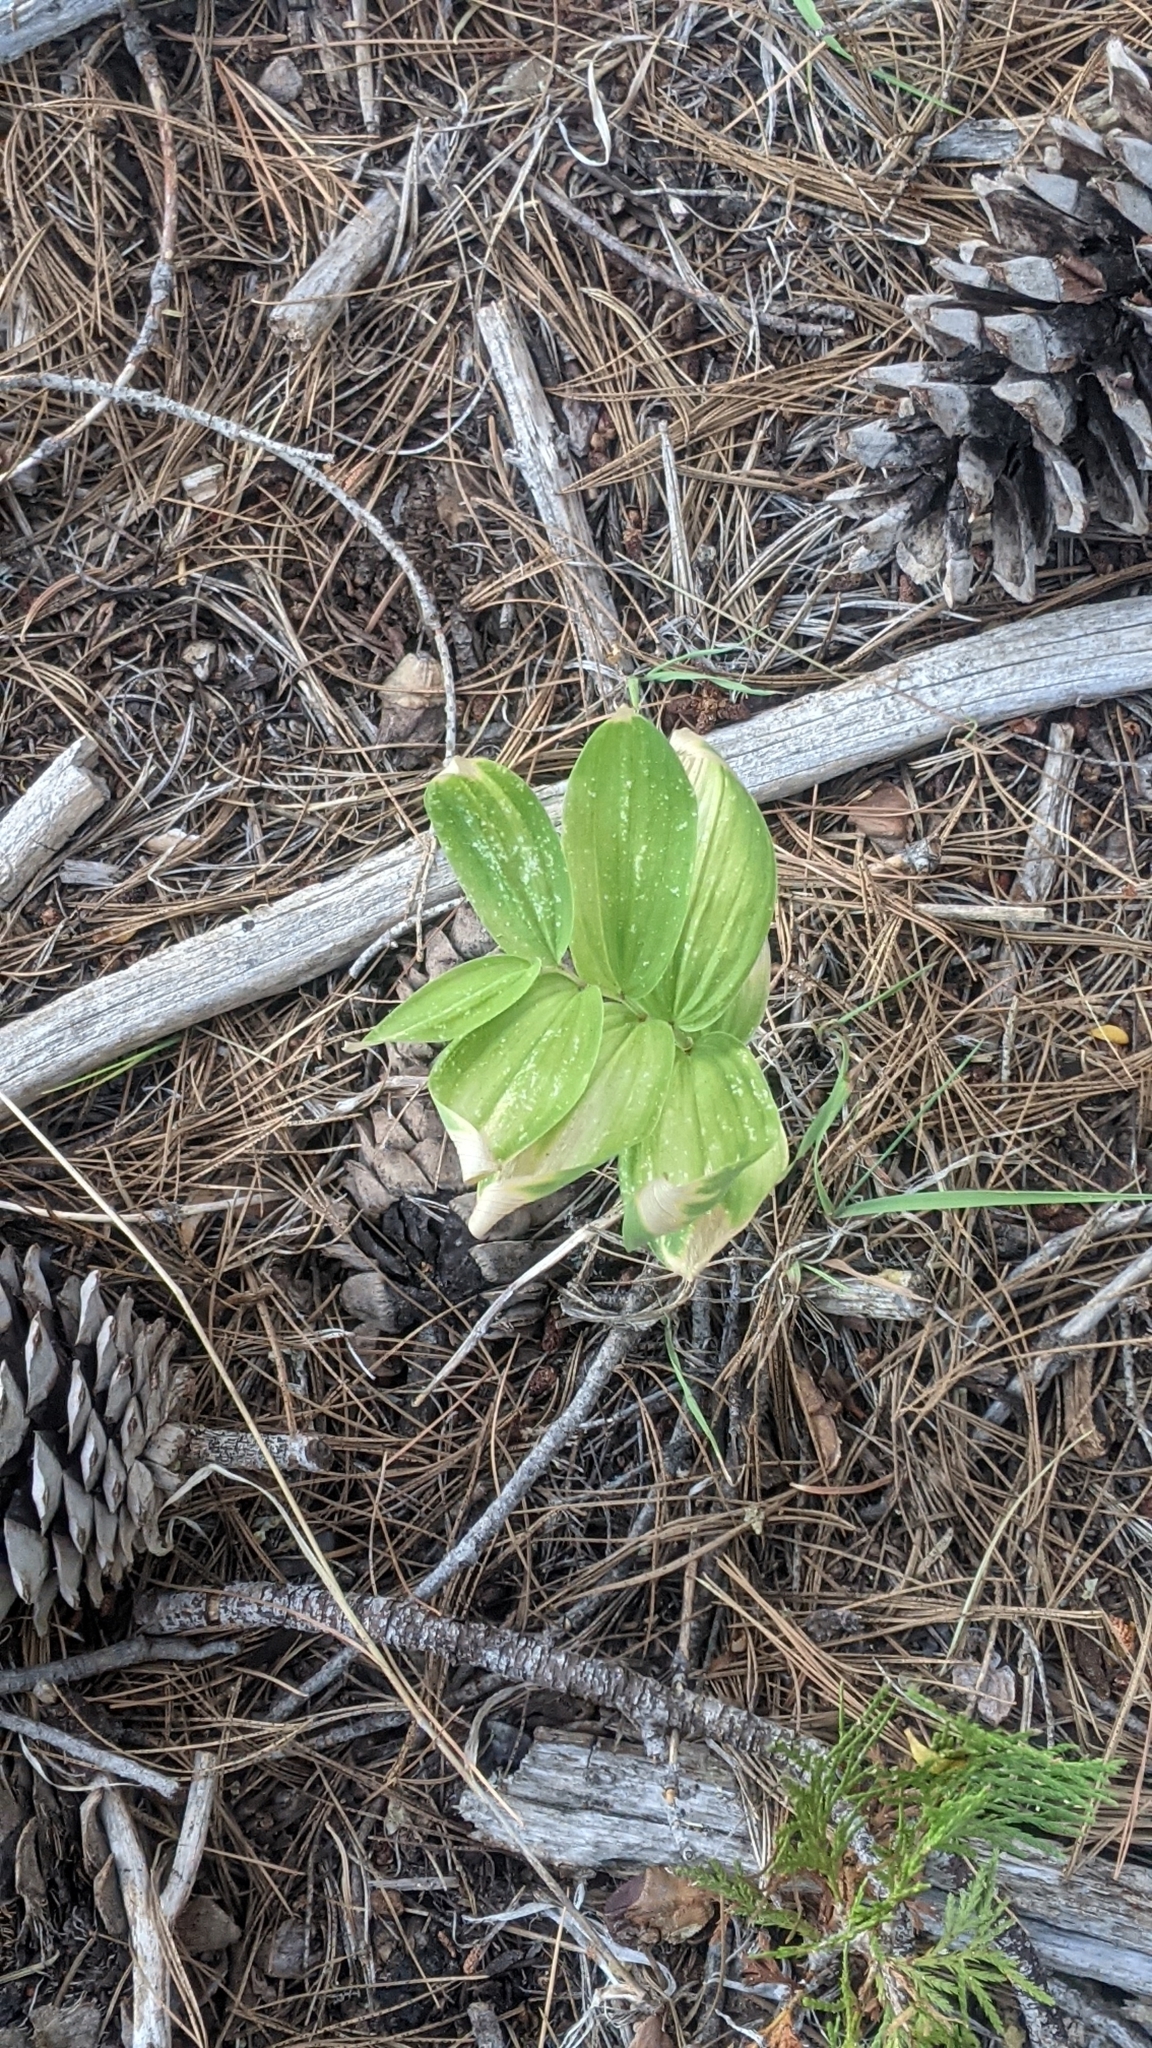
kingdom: Plantae
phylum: Tracheophyta
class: Liliopsida
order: Asparagales
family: Asparagaceae
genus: Maianthemum
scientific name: Maianthemum racemosum
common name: False spikenard
